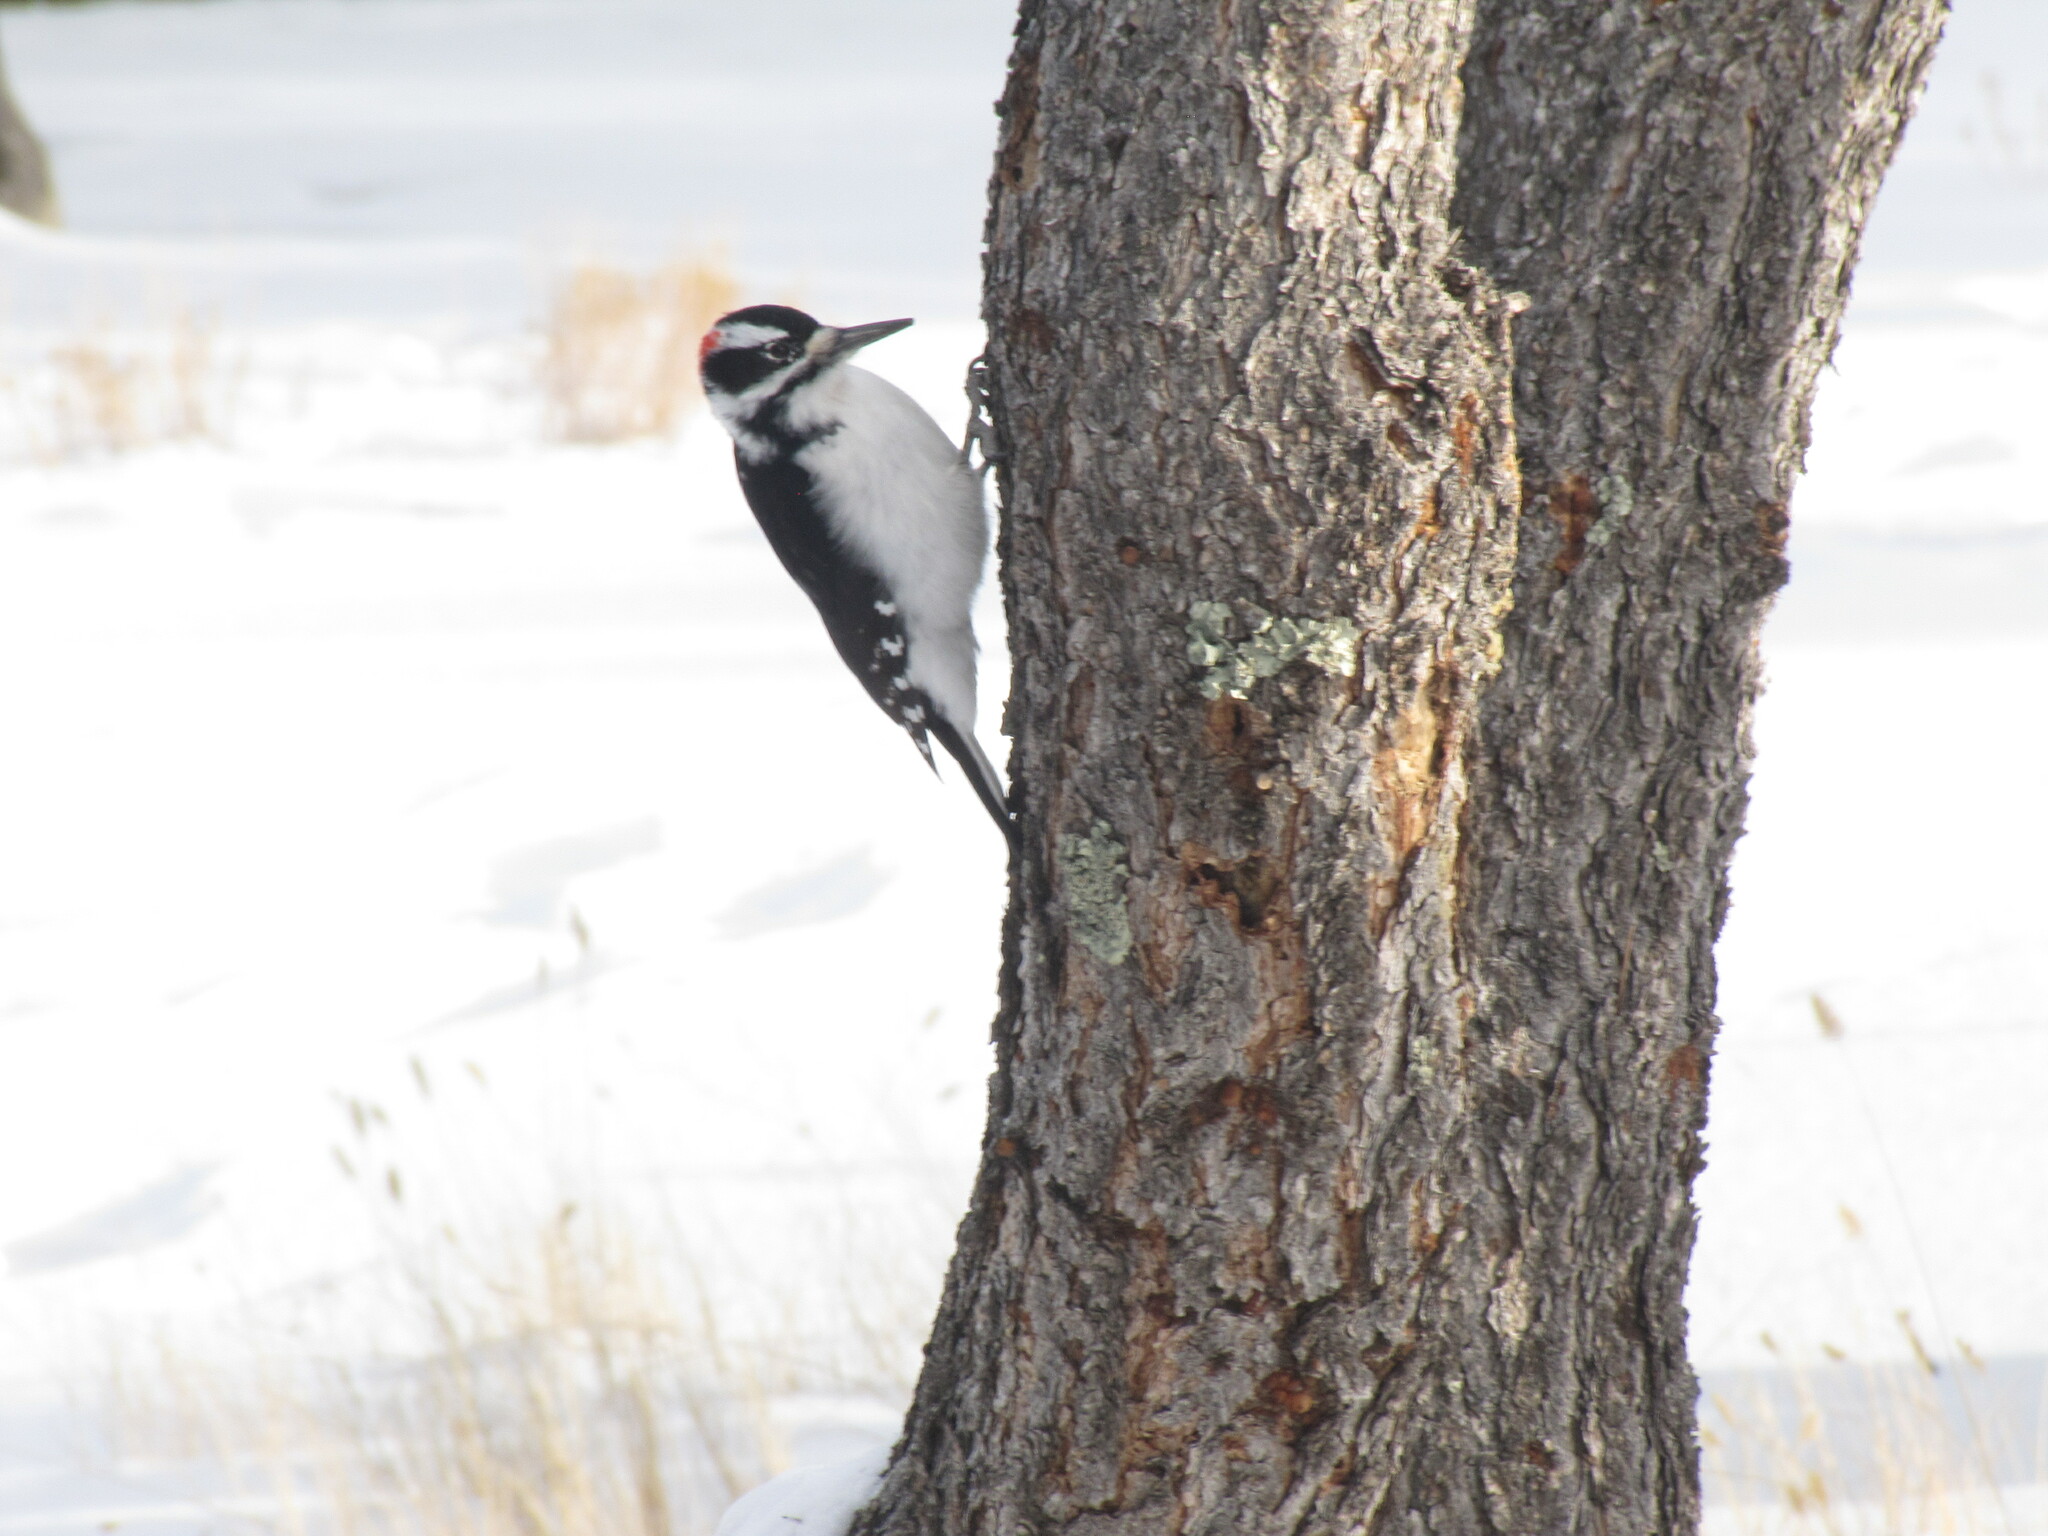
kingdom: Animalia
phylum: Chordata
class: Aves
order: Piciformes
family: Picidae
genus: Leuconotopicus
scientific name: Leuconotopicus villosus
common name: Hairy woodpecker
